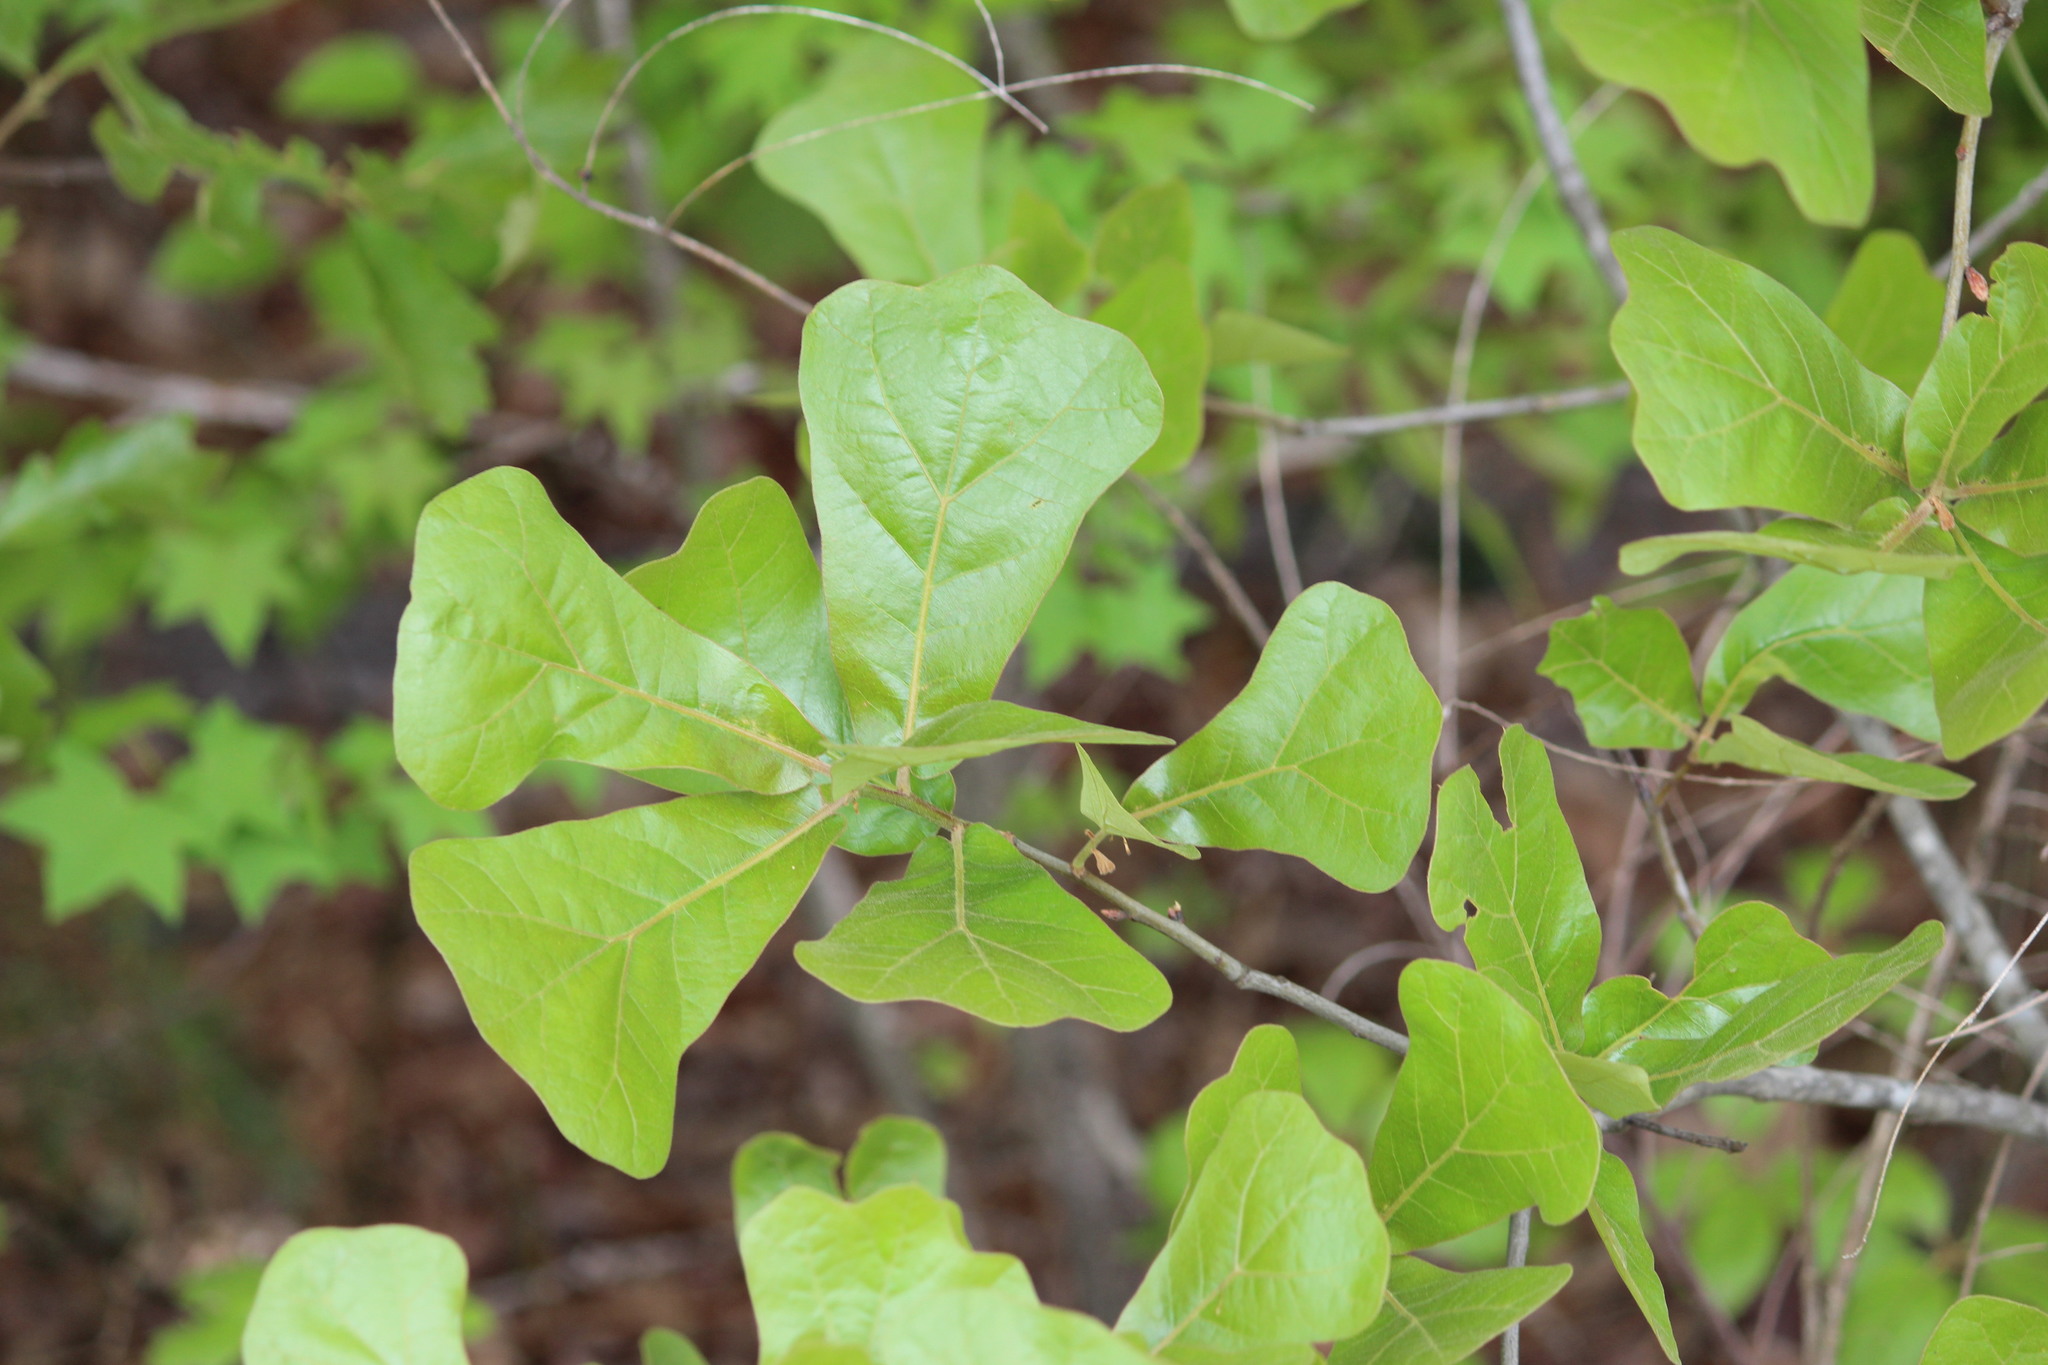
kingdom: Plantae
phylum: Tracheophyta
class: Magnoliopsida
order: Fagales
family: Fagaceae
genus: Quercus
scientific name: Quercus marilandica
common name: Blackjack oak
